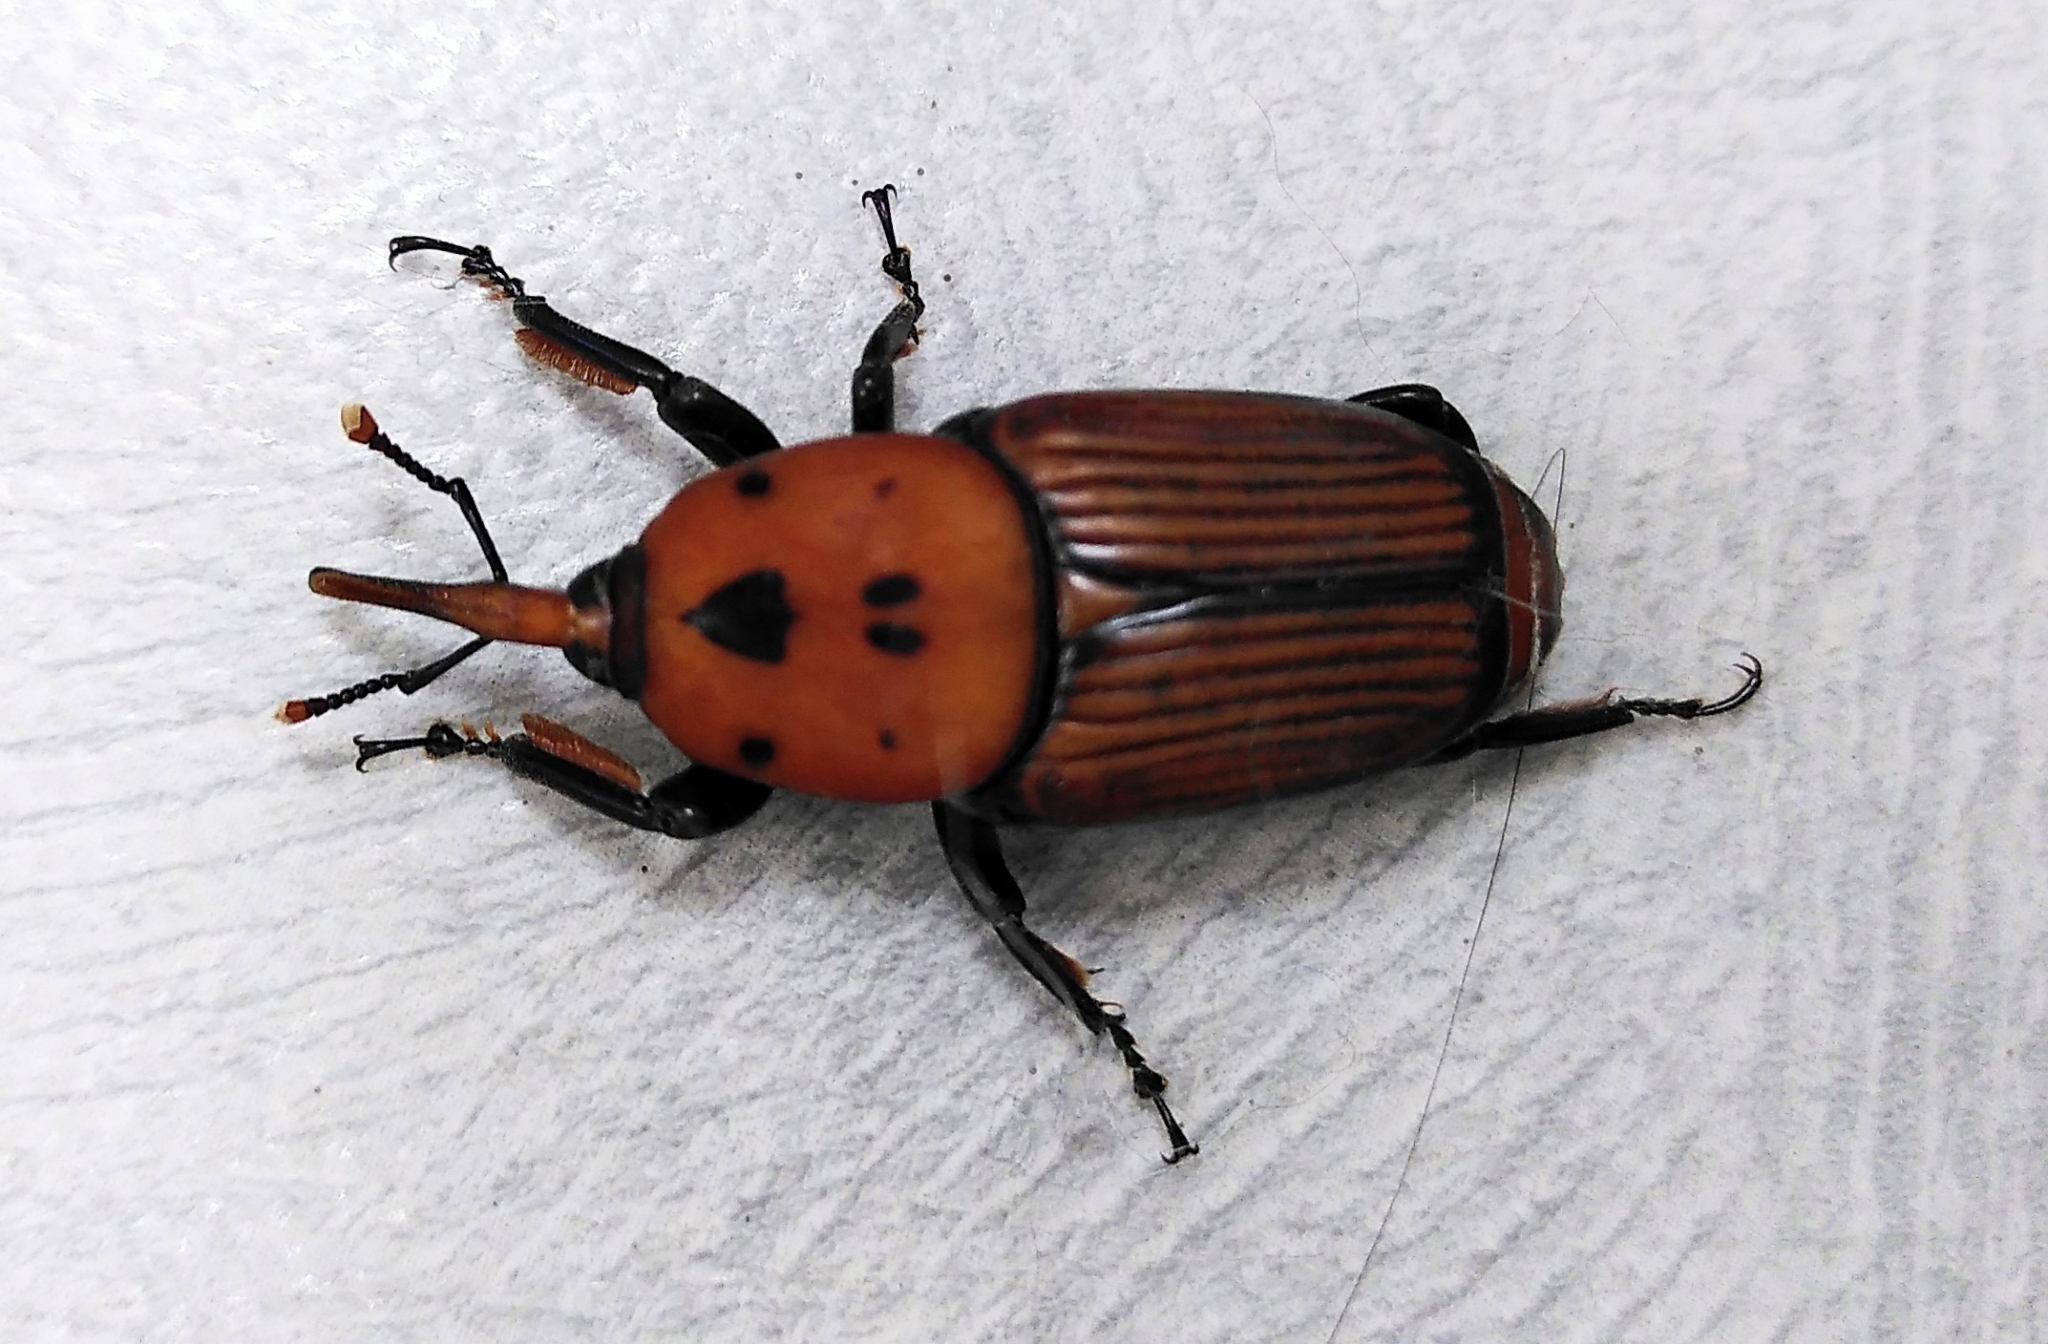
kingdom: Animalia
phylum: Arthropoda
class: Insecta
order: Coleoptera
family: Dryophthoridae
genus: Rhynchophorus
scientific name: Rhynchophorus ferrugineus
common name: Red palm weevil
